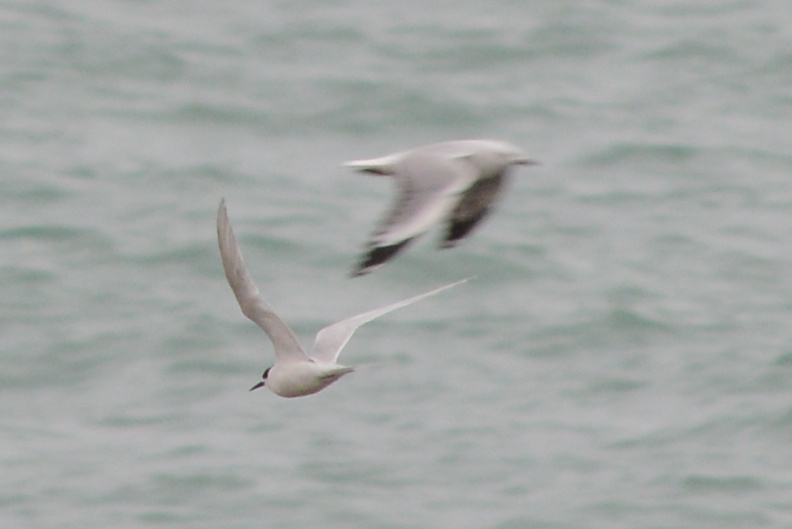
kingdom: Animalia
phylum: Chordata
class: Aves
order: Charadriiformes
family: Laridae
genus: Sterna
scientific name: Sterna striata
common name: White-fronted tern
